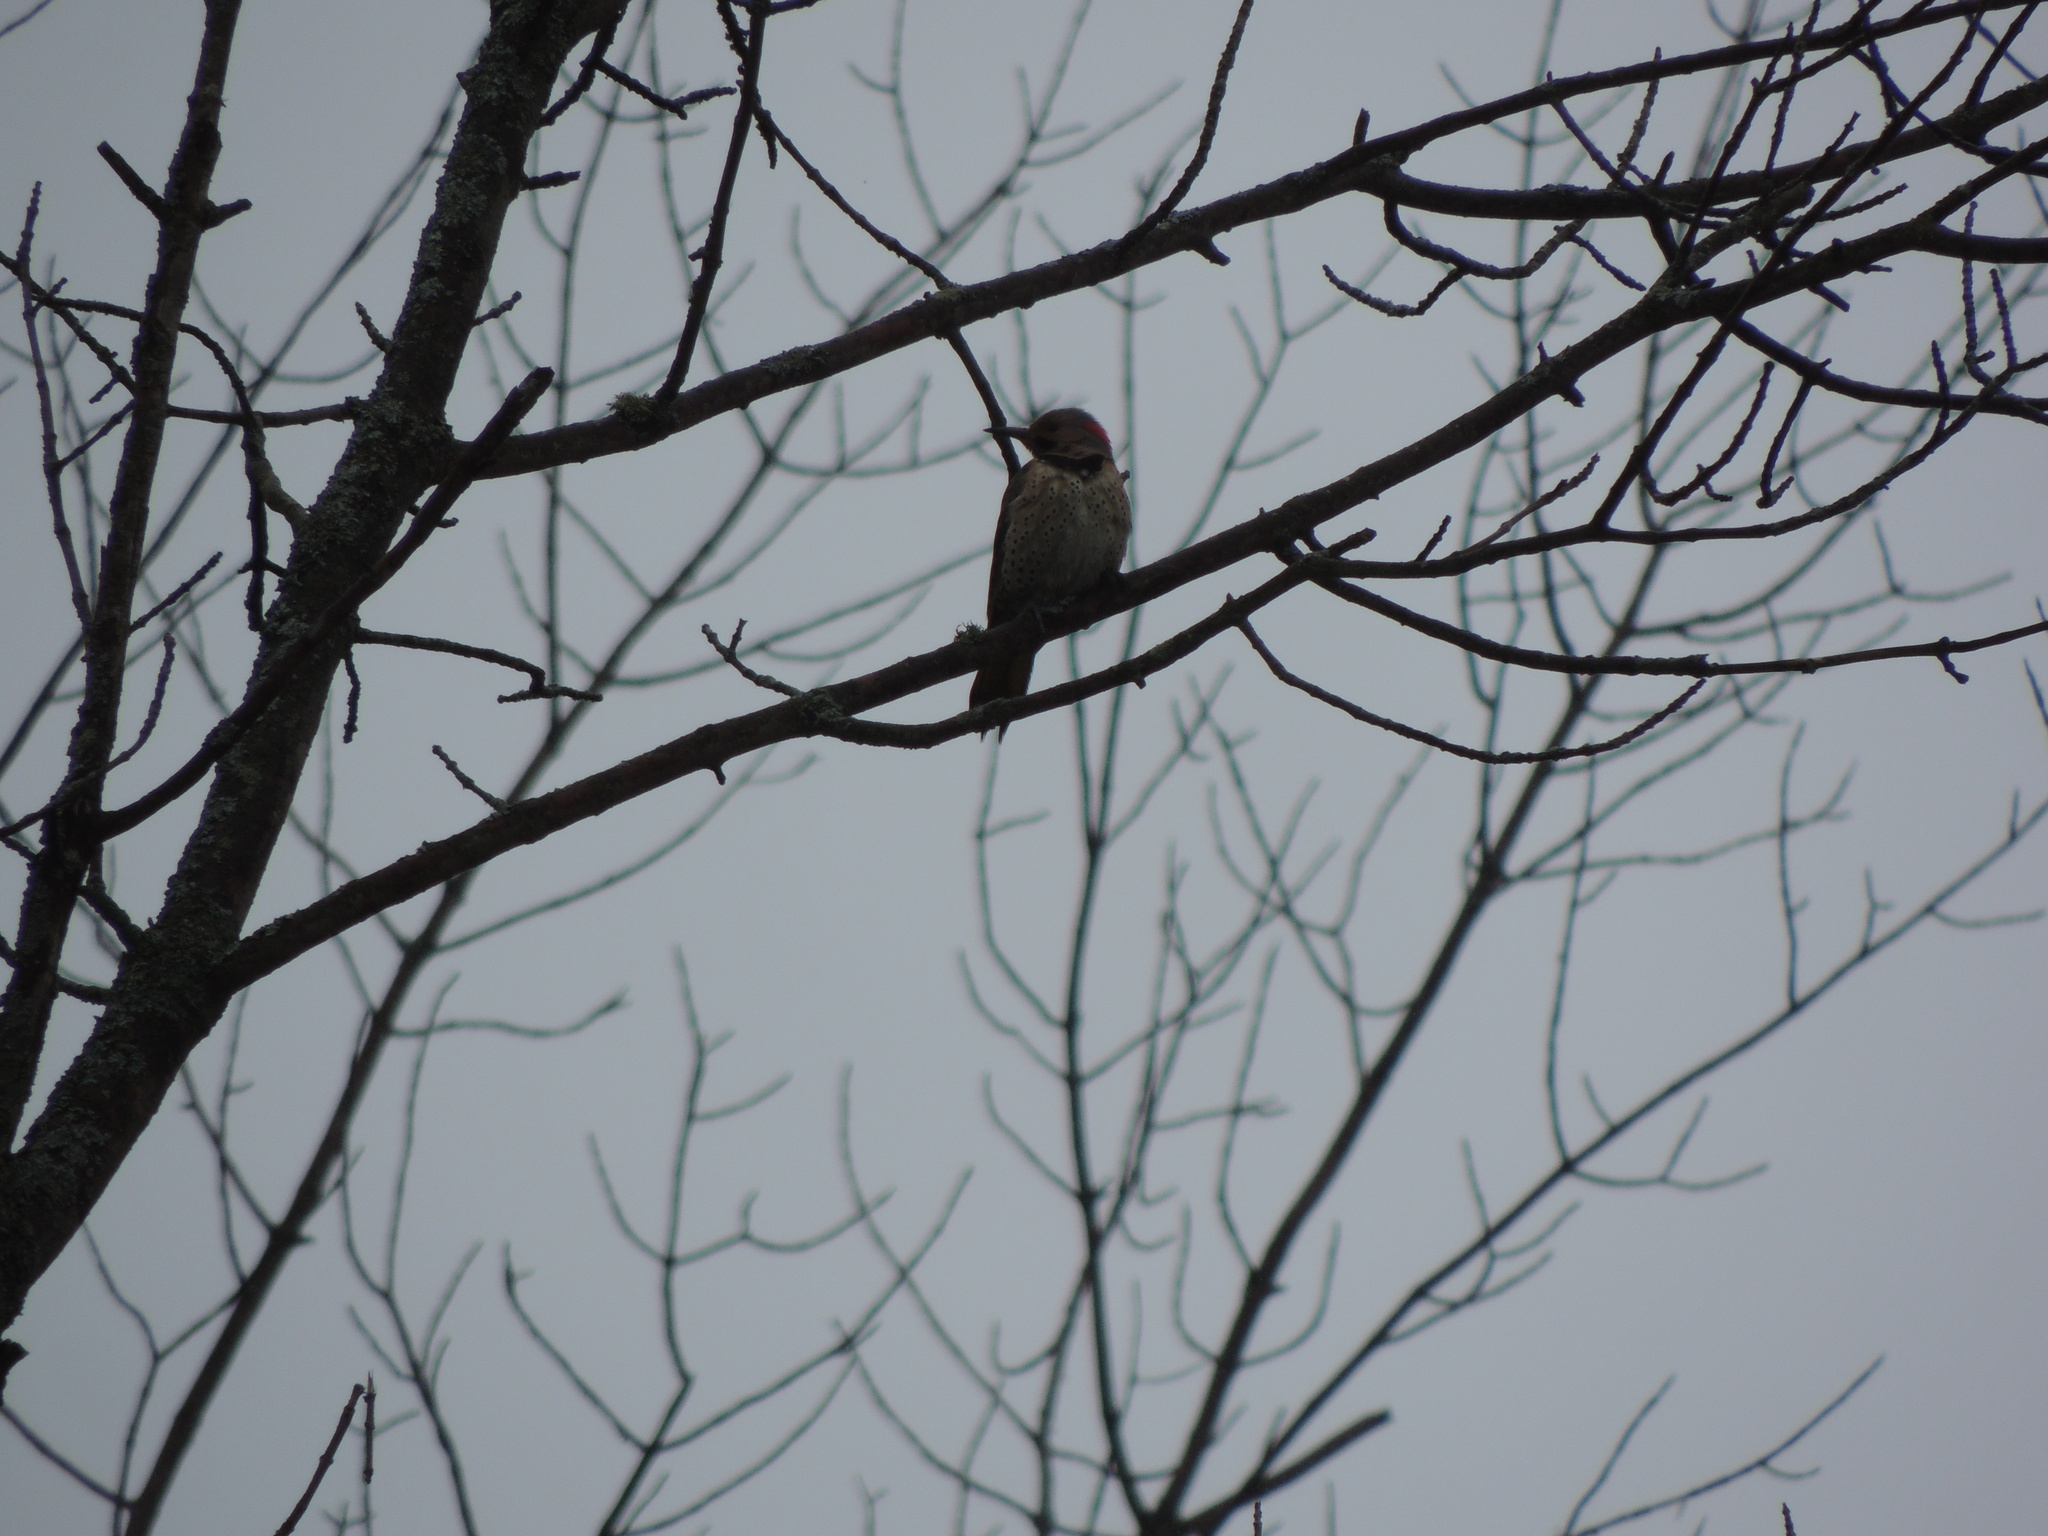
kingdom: Animalia
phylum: Chordata
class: Aves
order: Piciformes
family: Picidae
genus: Colaptes
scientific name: Colaptes auratus
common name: Northern flicker
